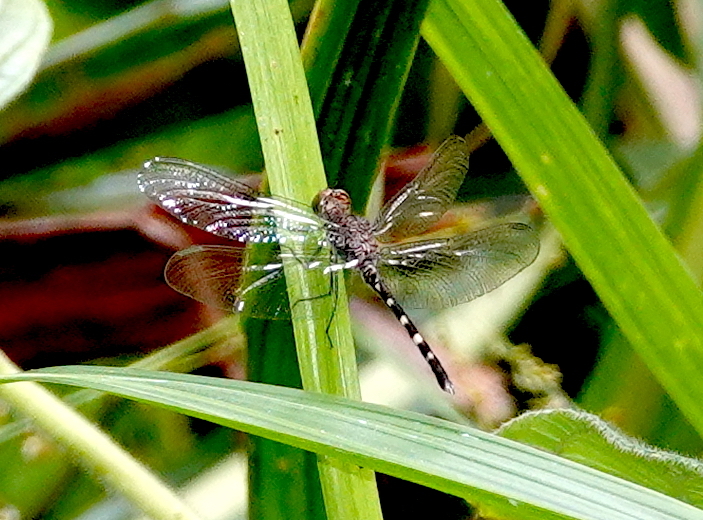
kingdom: Animalia
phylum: Arthropoda
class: Insecta
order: Odonata
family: Libellulidae
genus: Uracis
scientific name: Uracis imbuta
